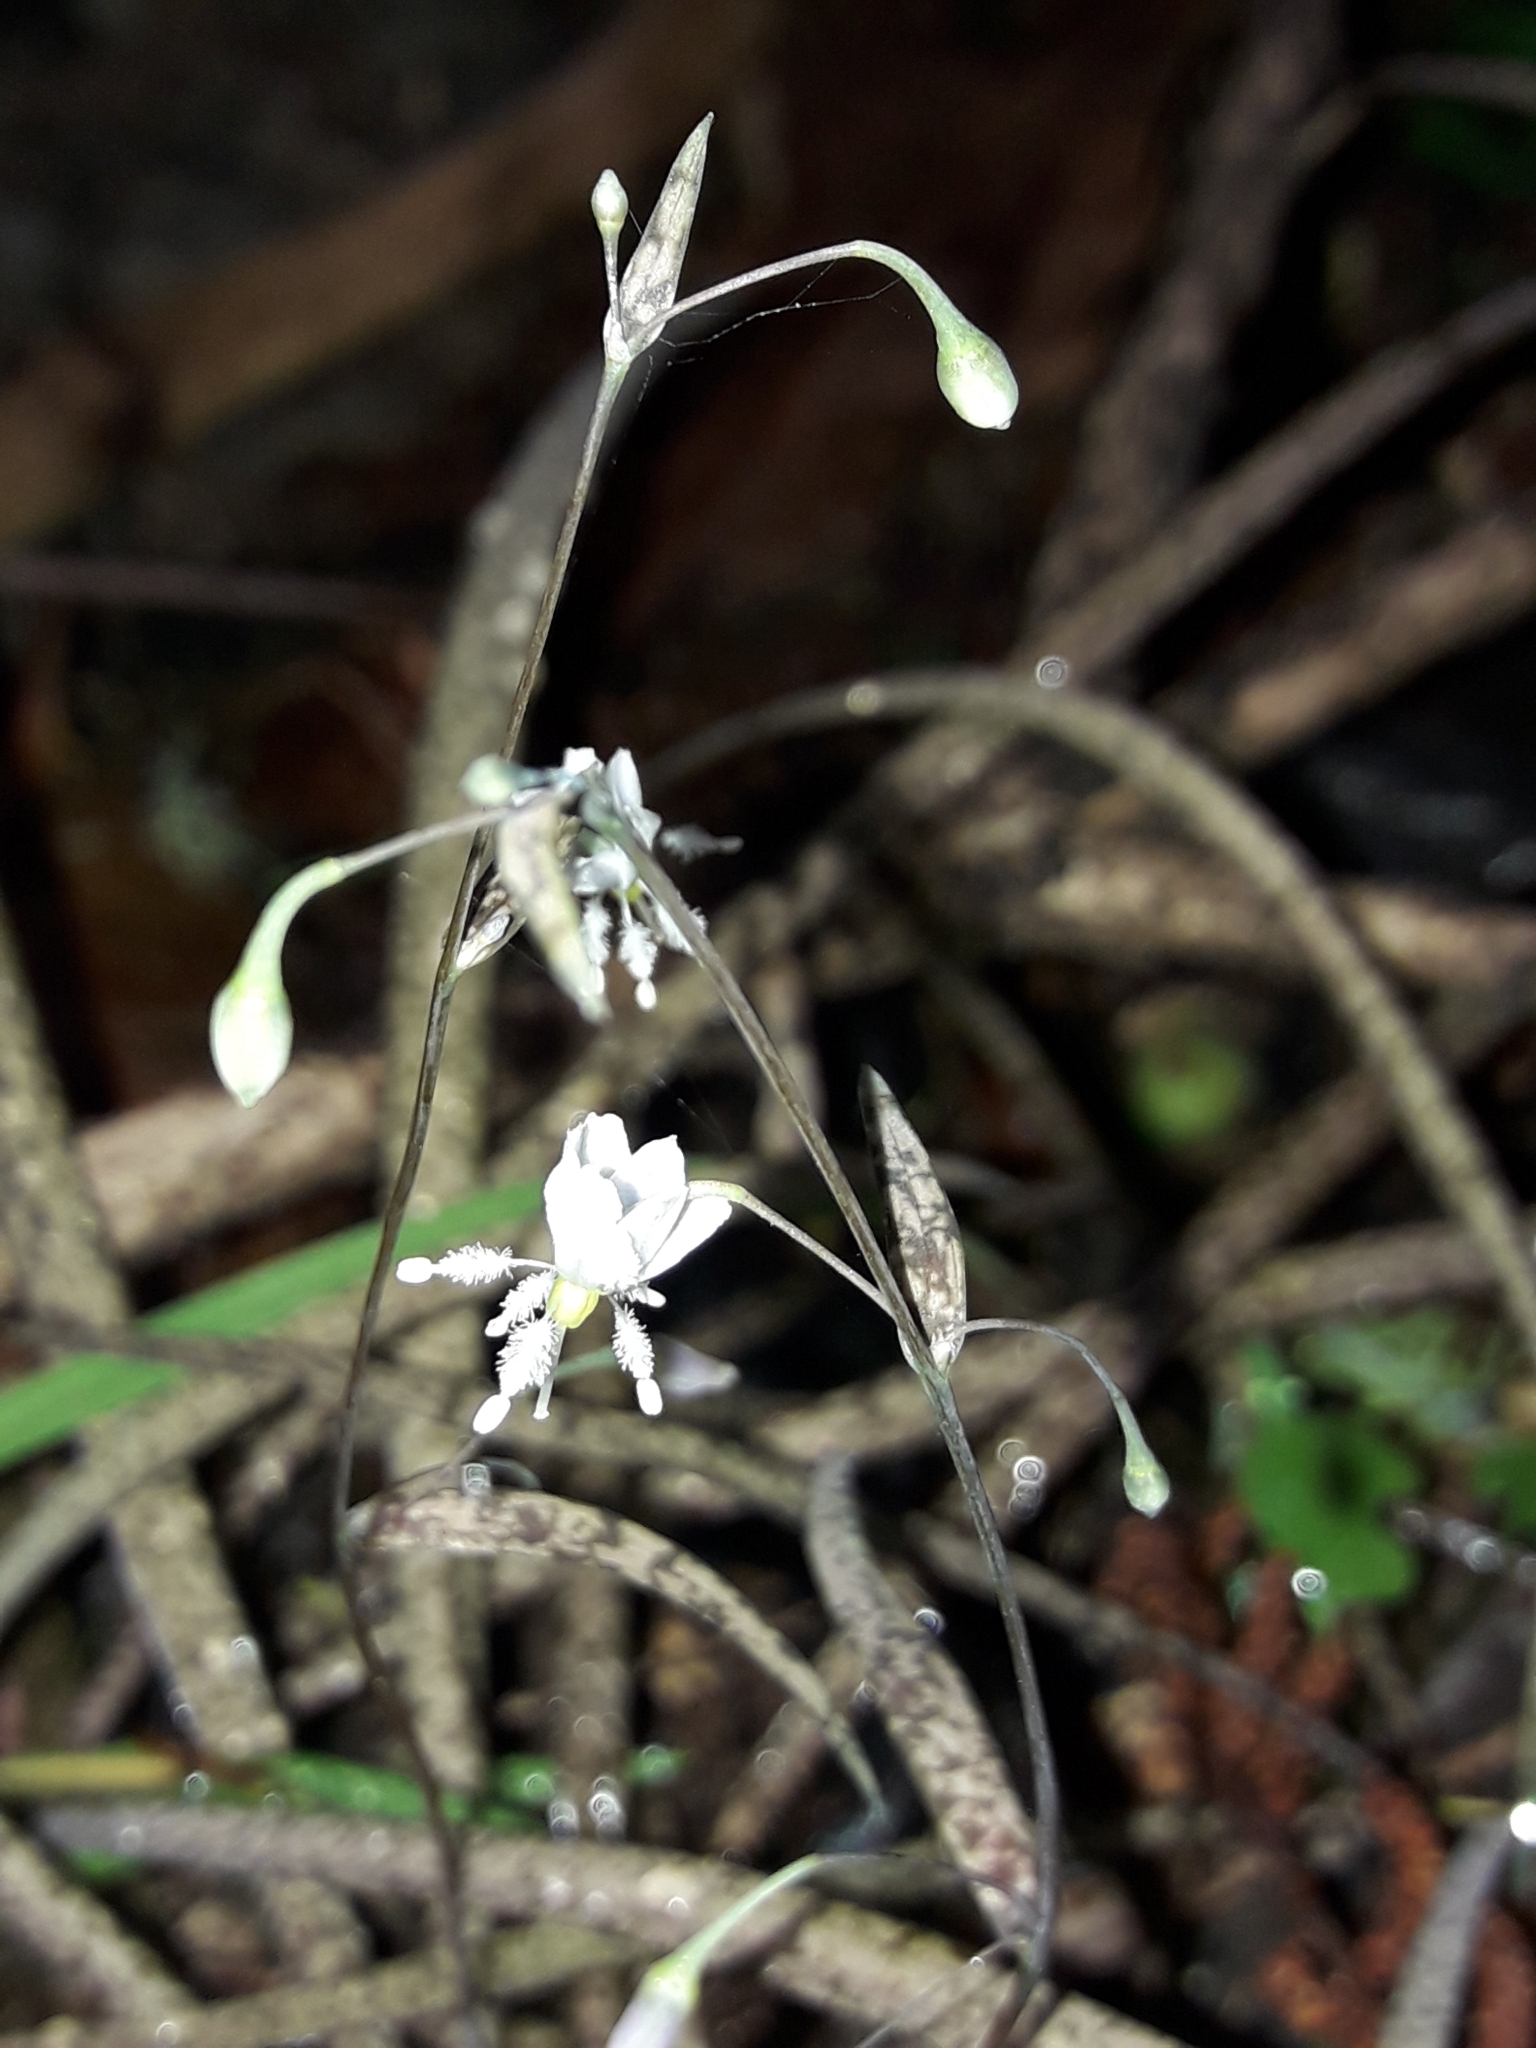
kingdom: Plantae
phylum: Tracheophyta
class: Liliopsida
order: Asparagales
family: Asparagaceae
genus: Arthropodium
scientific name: Arthropodium candidum
